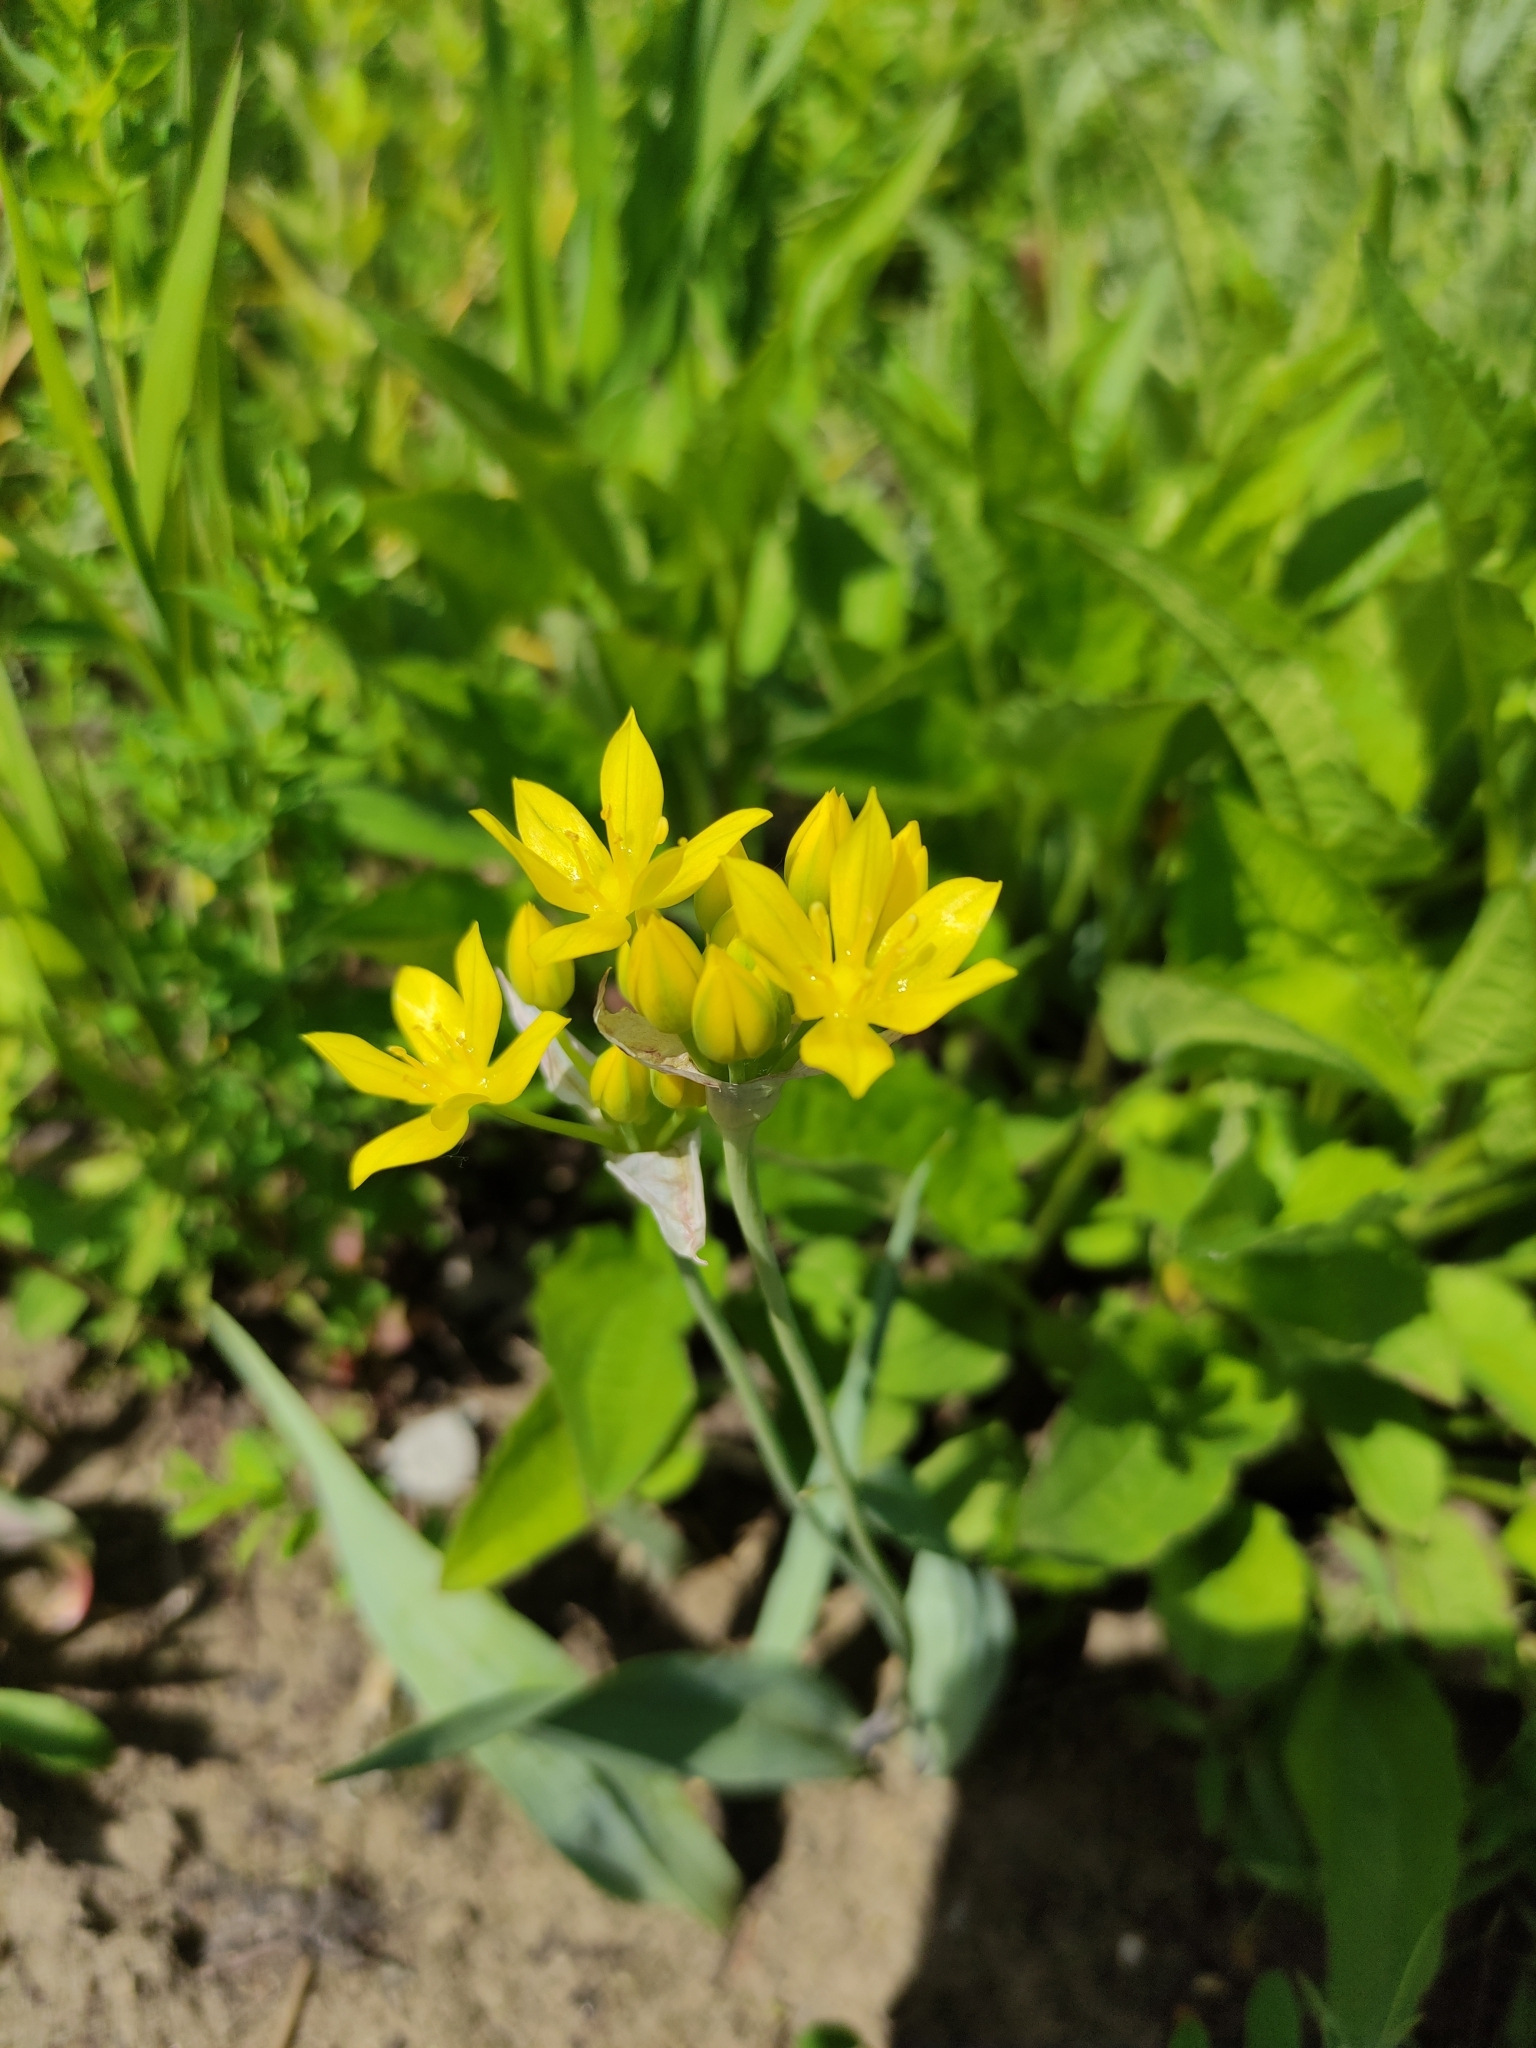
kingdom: Plantae
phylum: Tracheophyta
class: Liliopsida
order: Asparagales
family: Amaryllidaceae
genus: Allium
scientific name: Allium moly
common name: Yellow garlic
